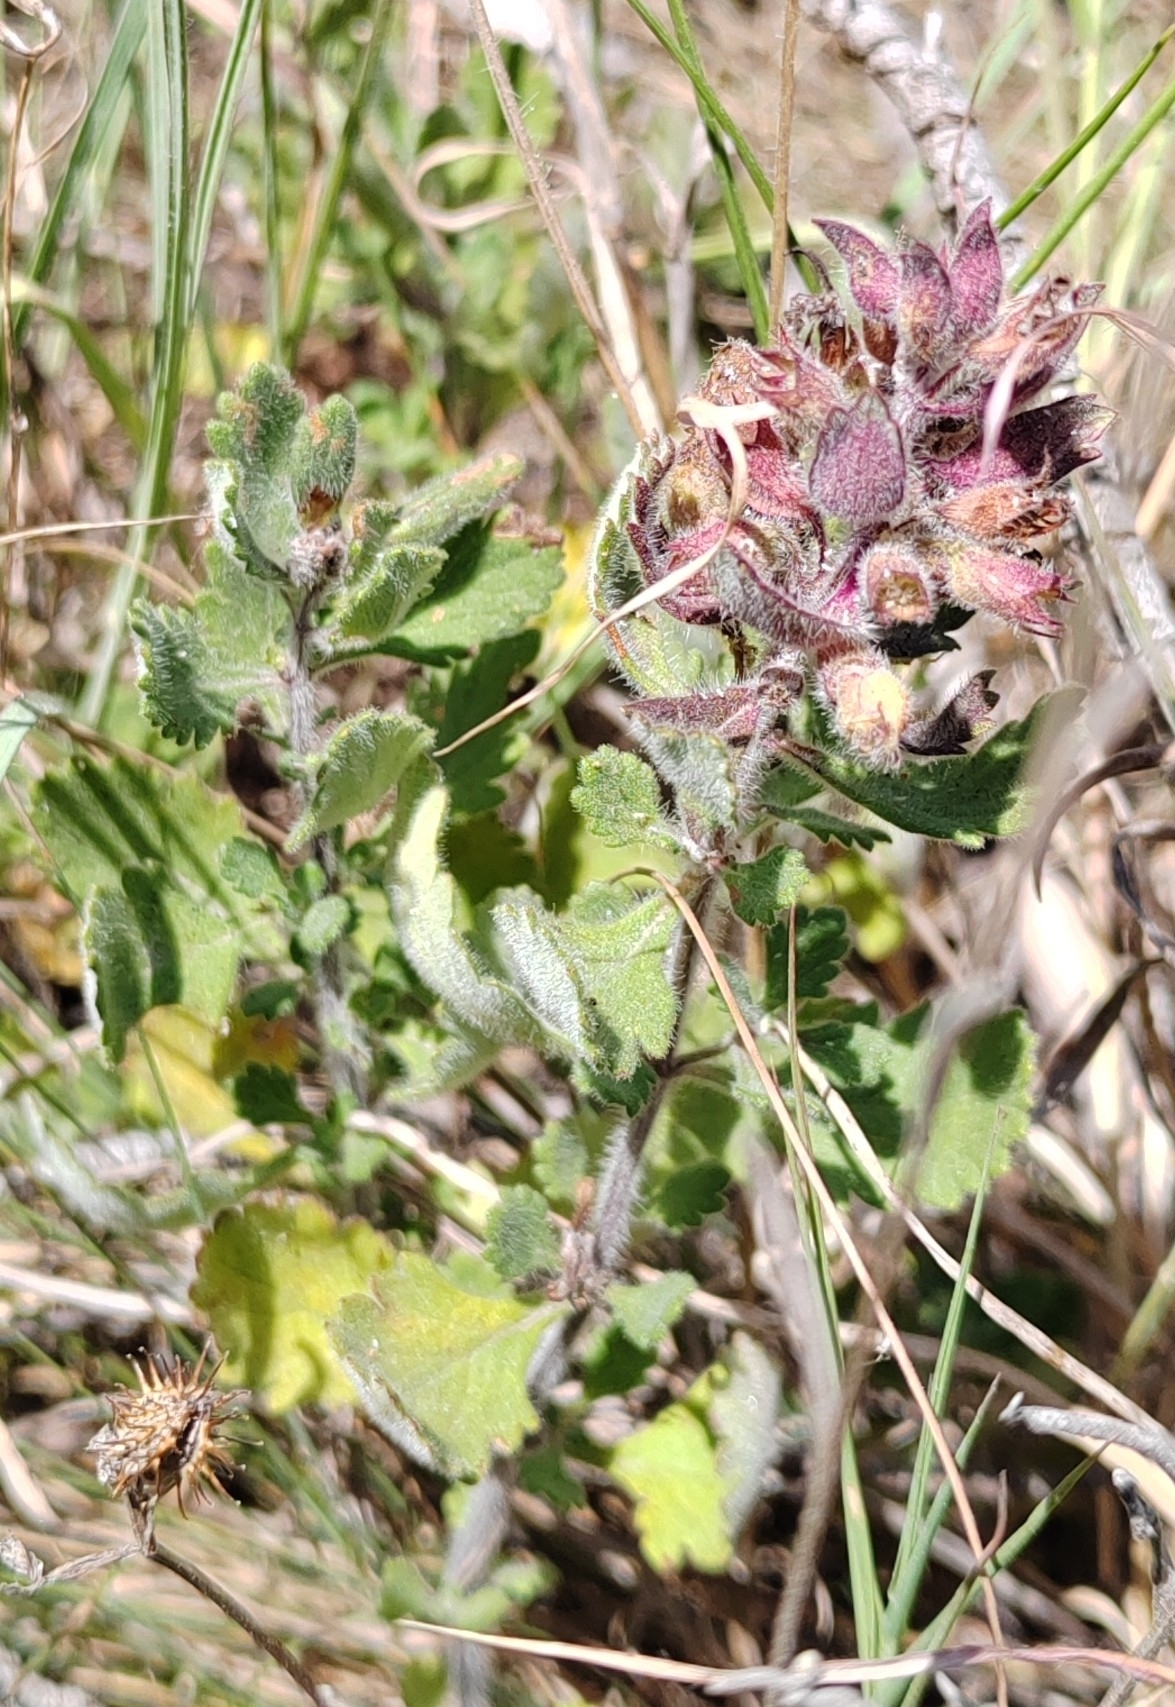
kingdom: Plantae
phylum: Tracheophyta
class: Magnoliopsida
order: Lamiales
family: Lamiaceae
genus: Teucrium
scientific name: Teucrium chamaedrys
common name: Wall germander
